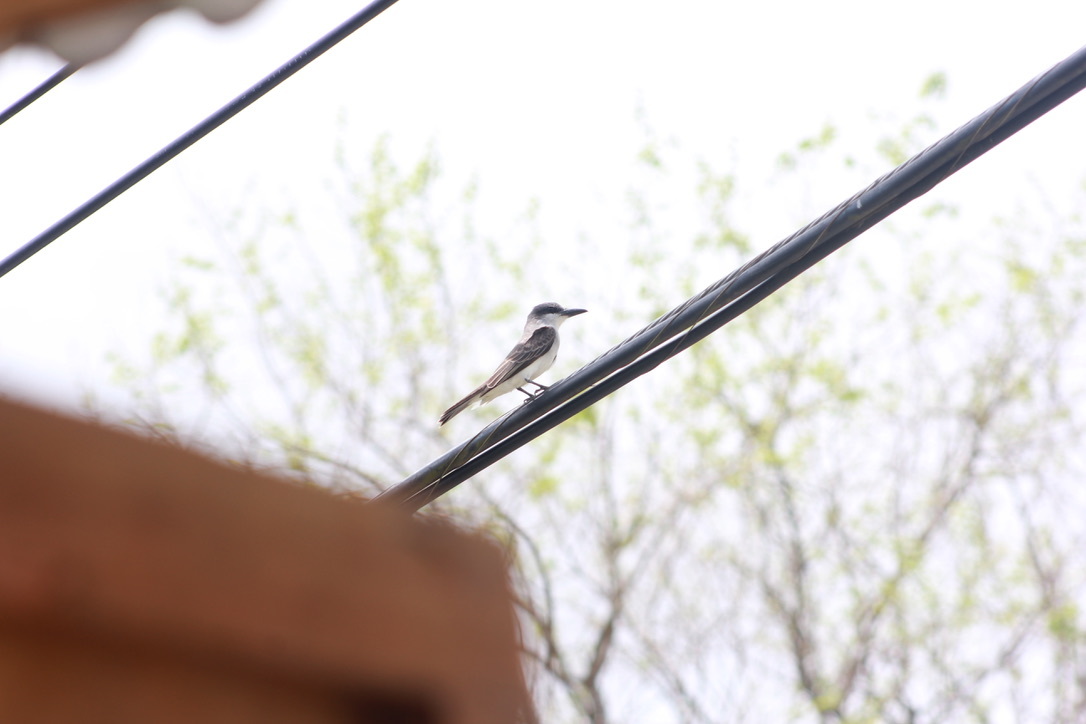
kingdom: Animalia
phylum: Chordata
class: Aves
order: Passeriformes
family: Tyrannidae
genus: Tyrannus
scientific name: Tyrannus dominicensis
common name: Gray kingbird
